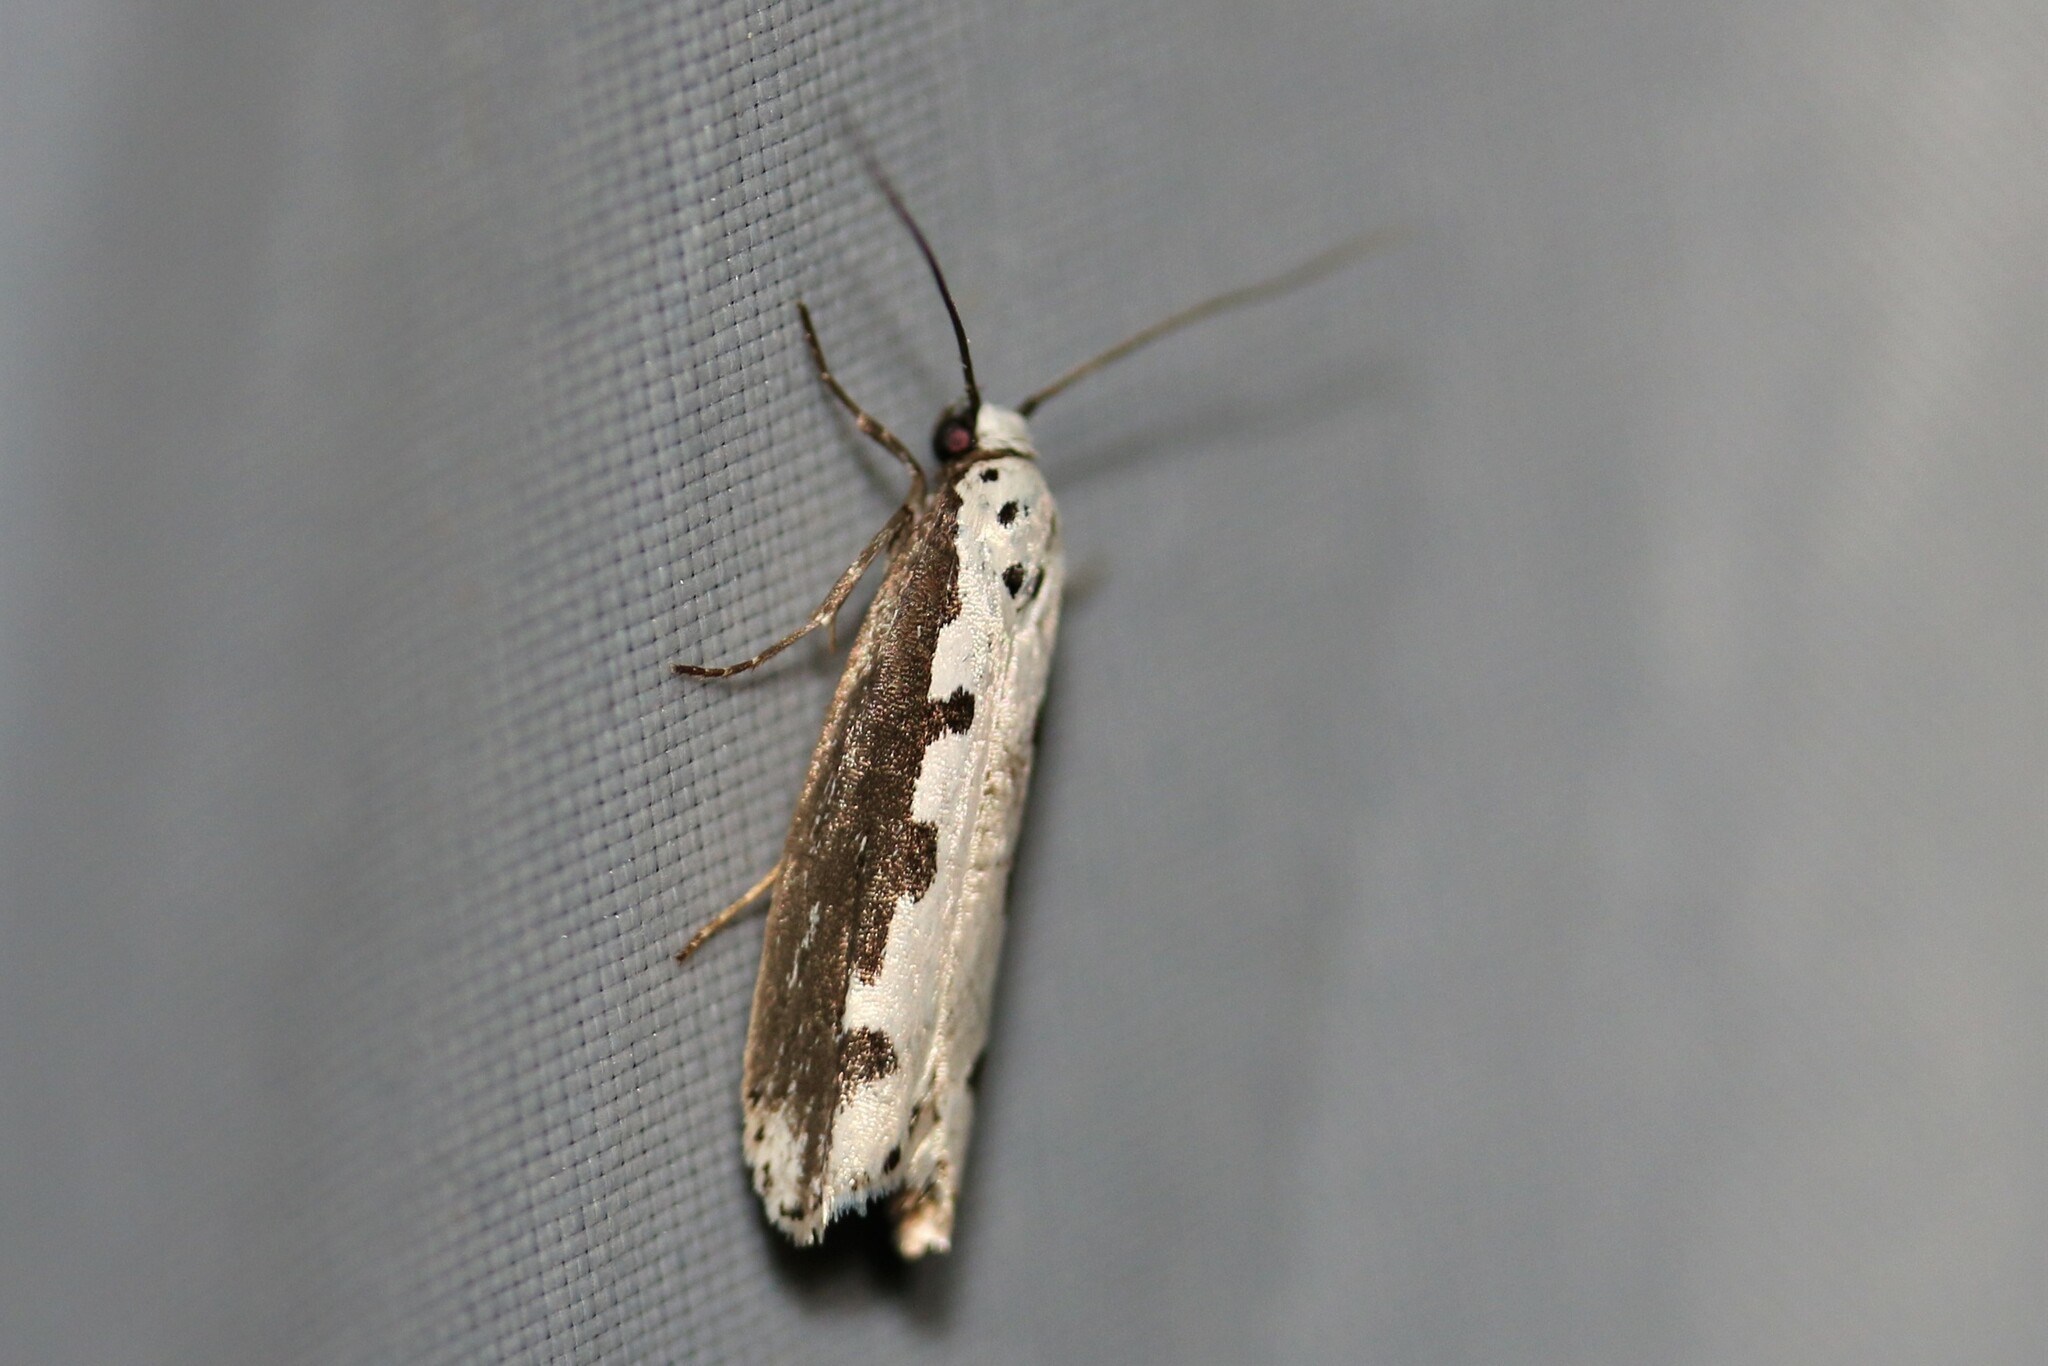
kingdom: Animalia
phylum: Arthropoda
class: Insecta
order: Lepidoptera
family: Ethmiidae
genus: Ethmia
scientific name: Ethmia bipunctella
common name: Bordered ermel
